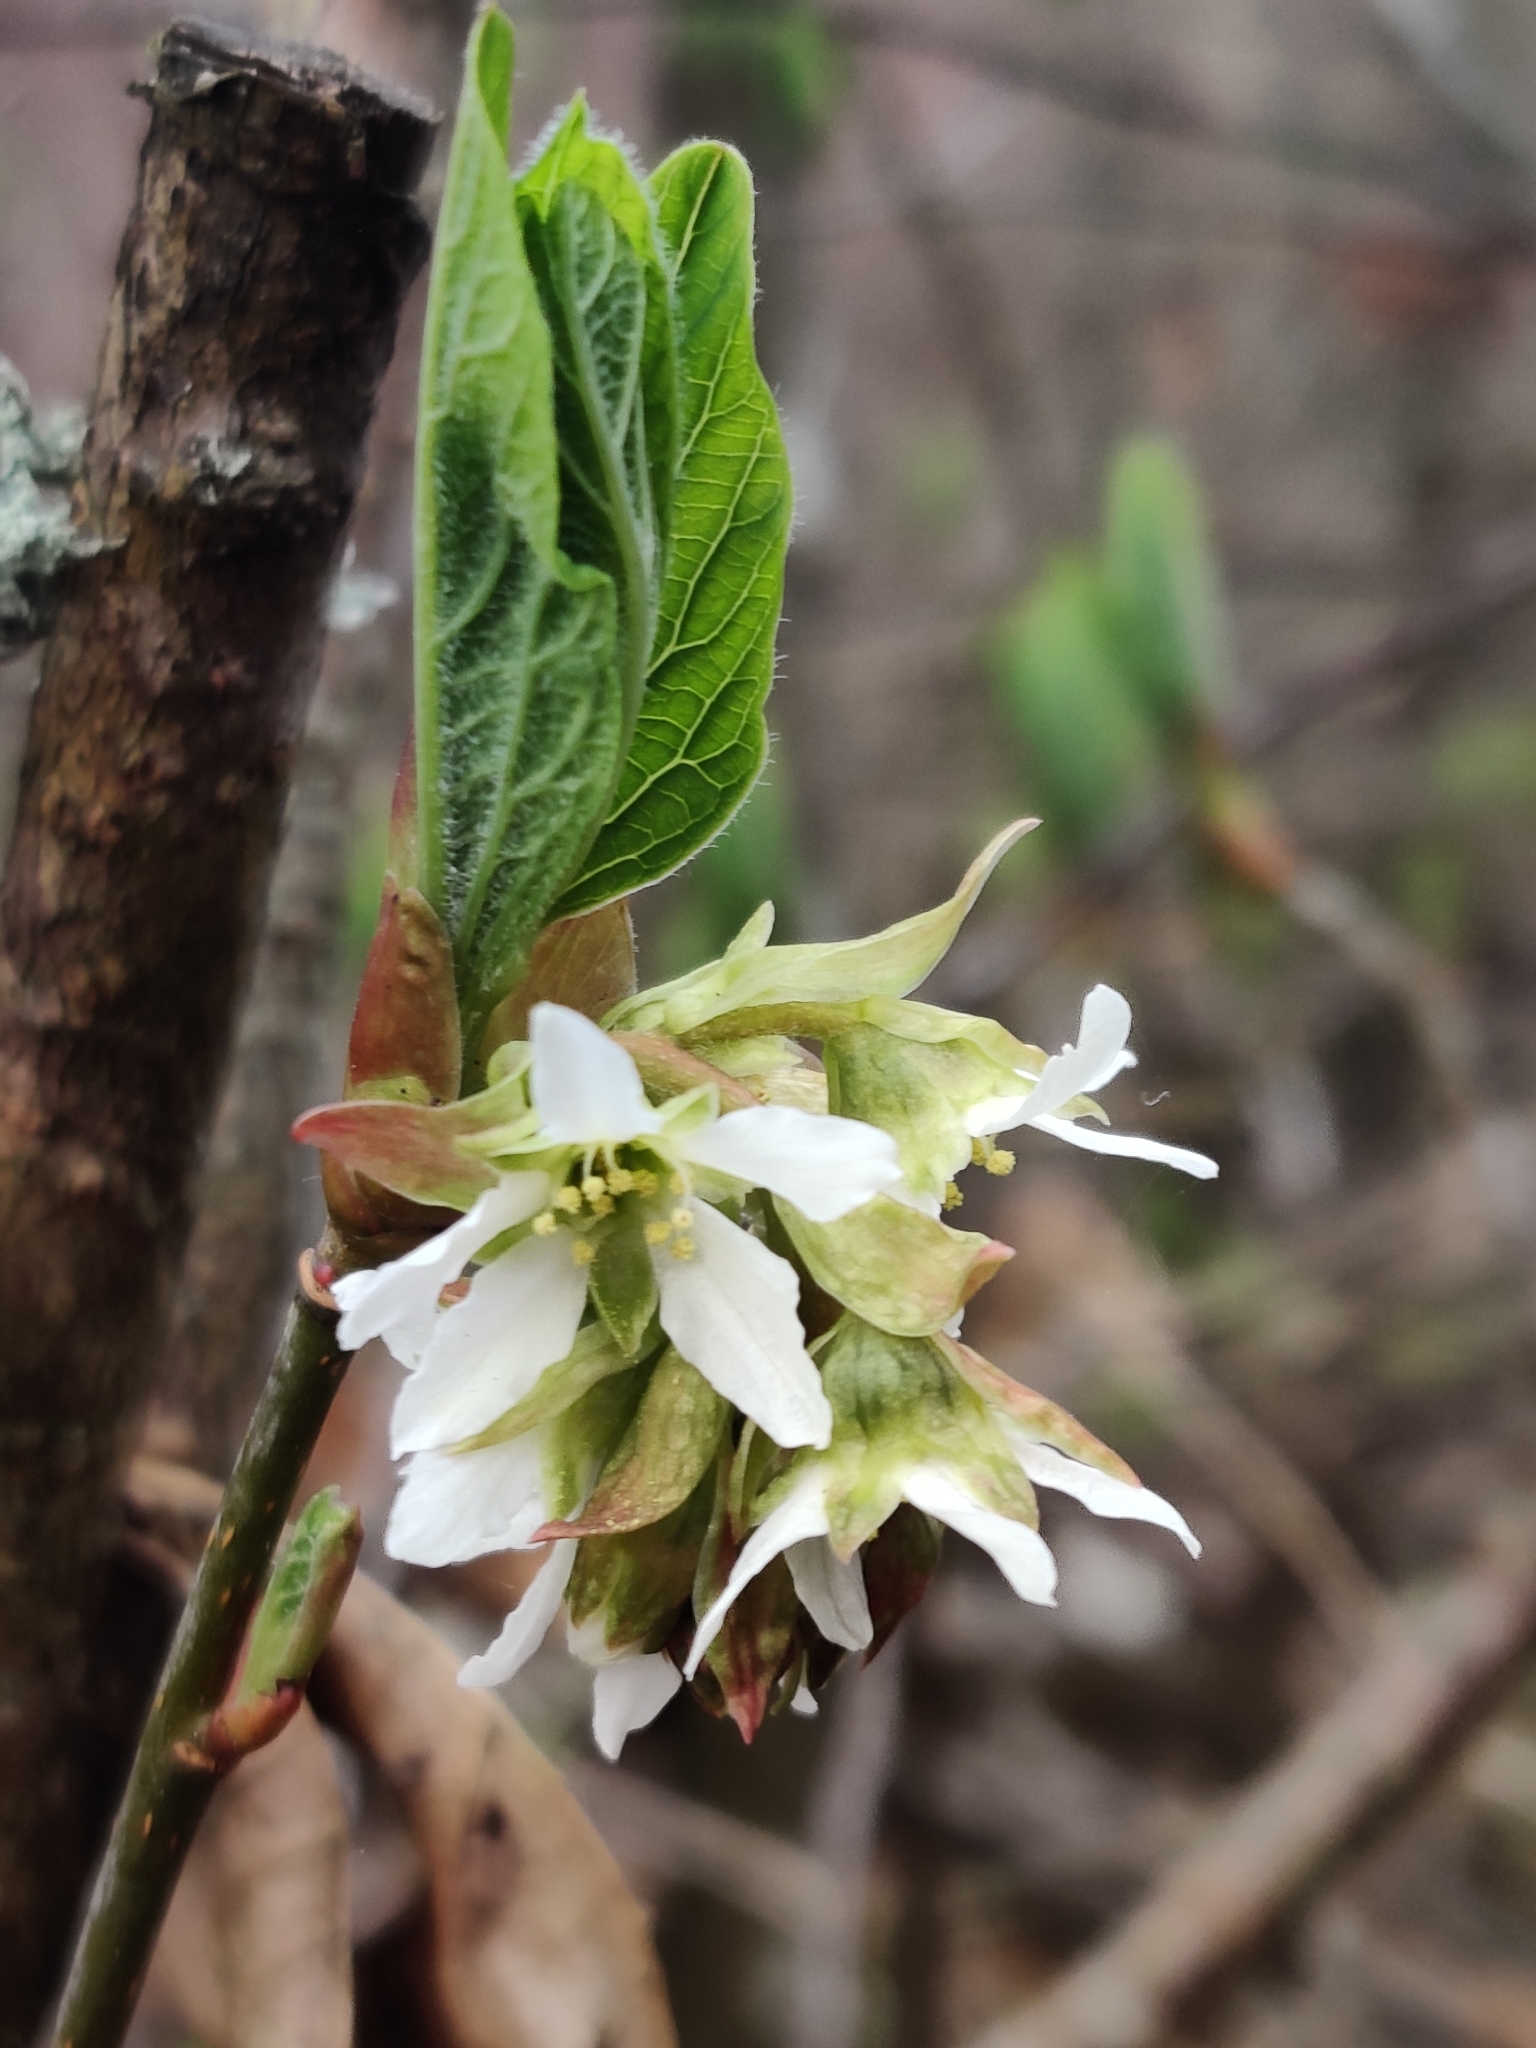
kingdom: Plantae
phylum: Tracheophyta
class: Magnoliopsida
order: Rosales
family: Rosaceae
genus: Oemleria
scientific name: Oemleria cerasiformis
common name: Osoberry
